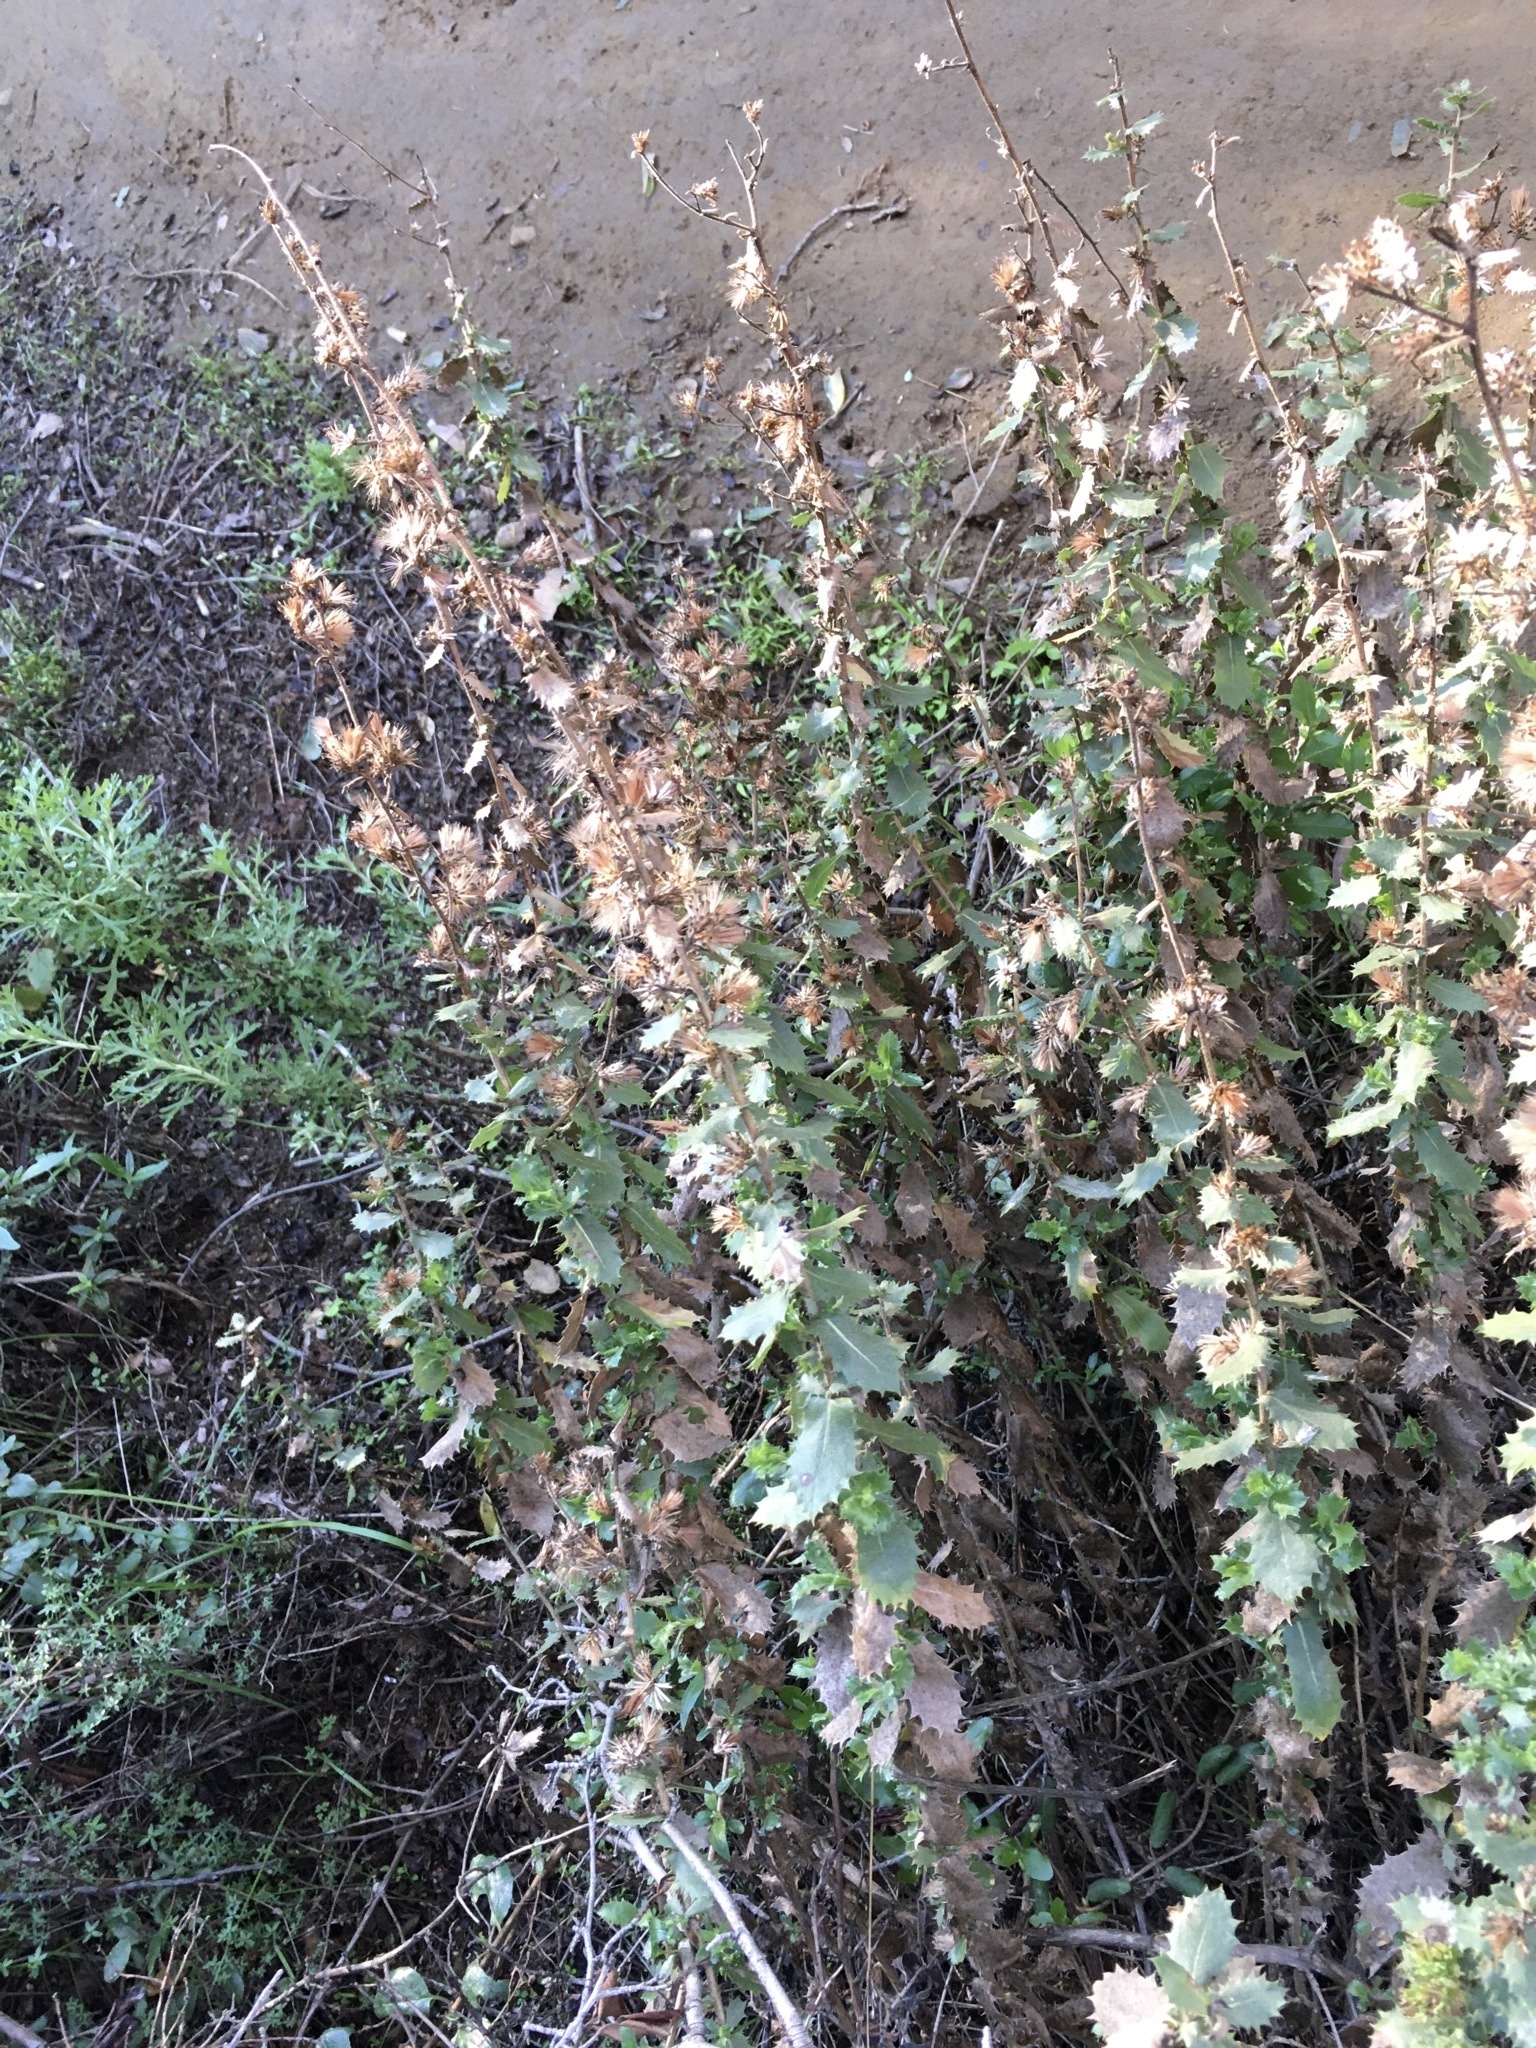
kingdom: Plantae
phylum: Tracheophyta
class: Magnoliopsida
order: Asterales
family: Asteraceae
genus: Hazardia
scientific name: Hazardia squarrosa
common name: Saw-tooth goldenbush
